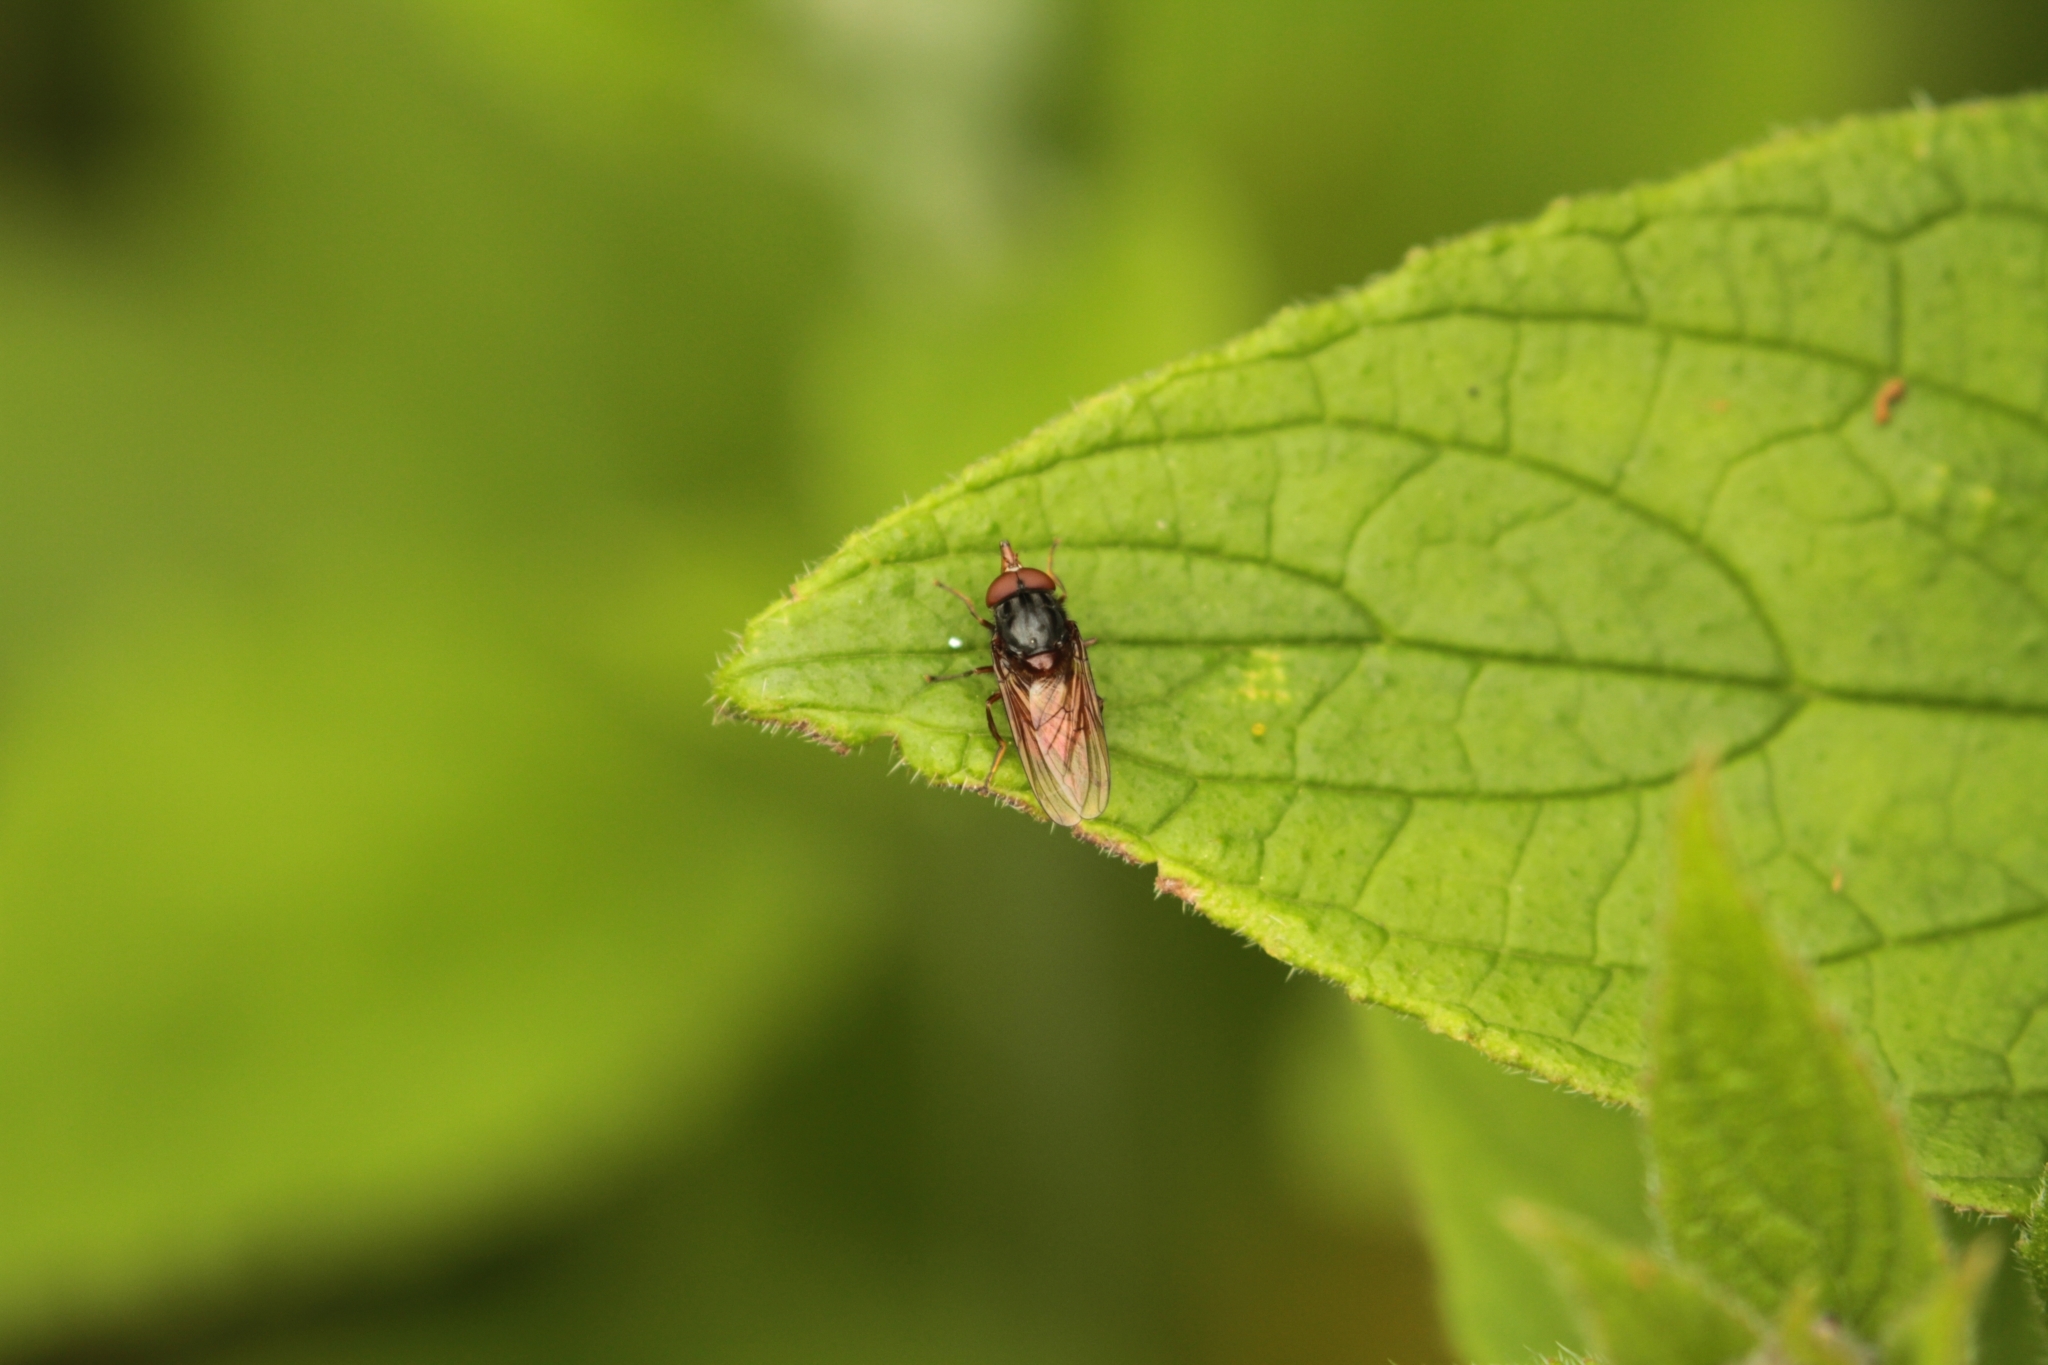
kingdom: Animalia
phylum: Arthropoda
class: Insecta
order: Diptera
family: Syrphidae
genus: Rhingia
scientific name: Rhingia campestris
